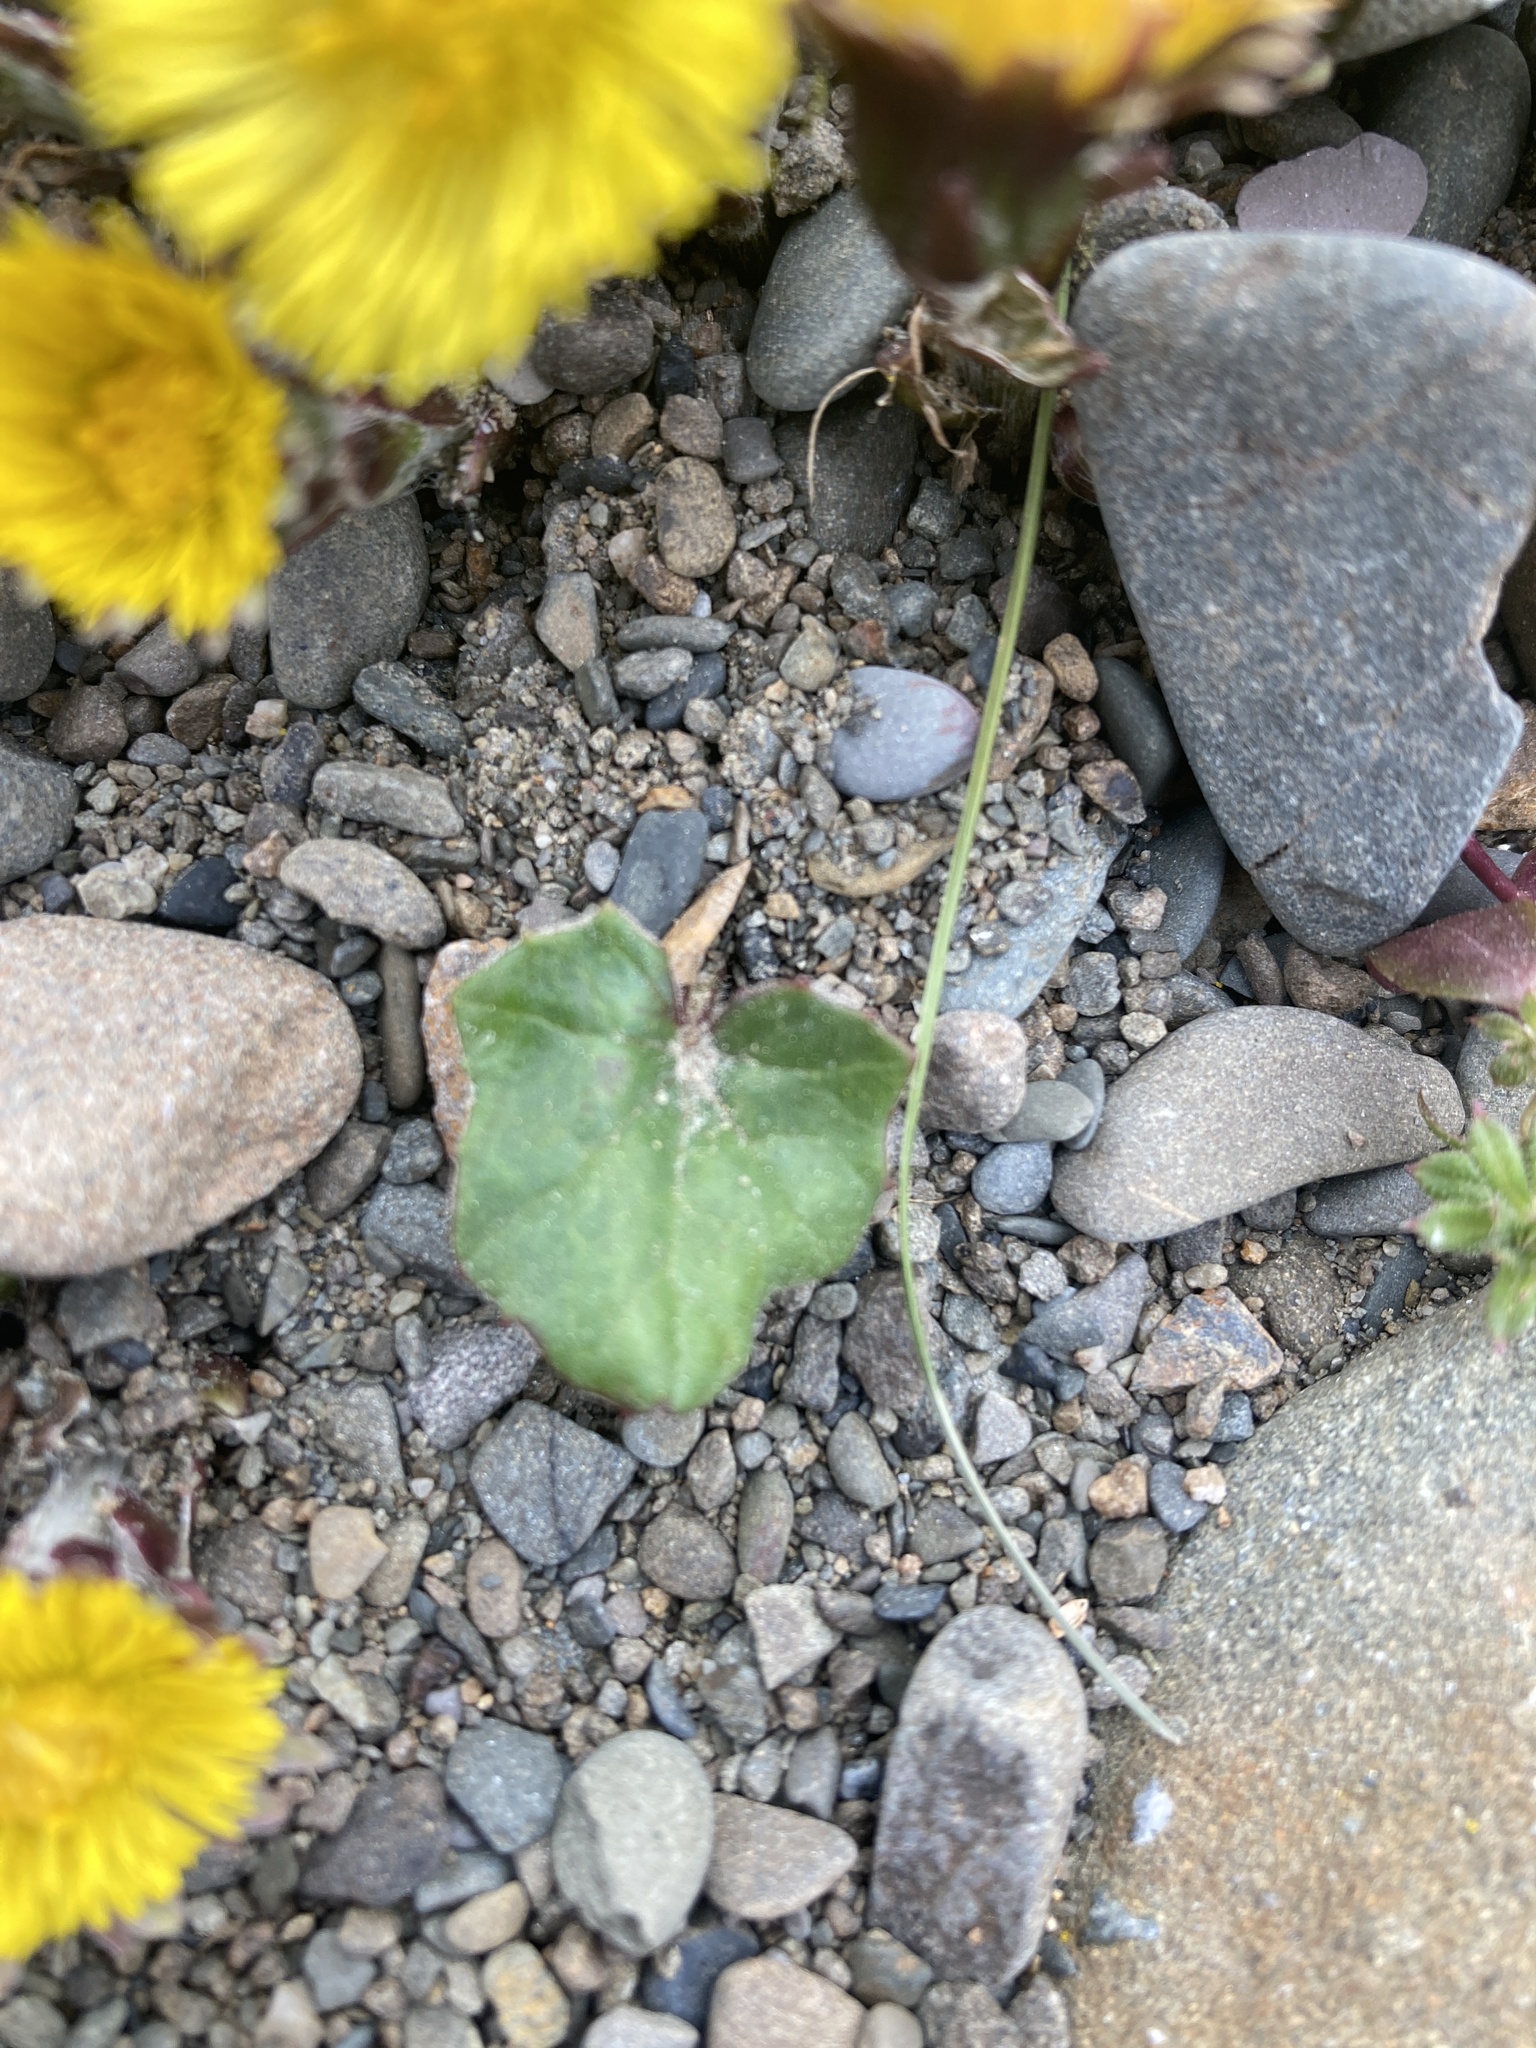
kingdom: Plantae
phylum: Tracheophyta
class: Magnoliopsida
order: Asterales
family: Asteraceae
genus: Tussilago
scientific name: Tussilago farfara
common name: Coltsfoot
